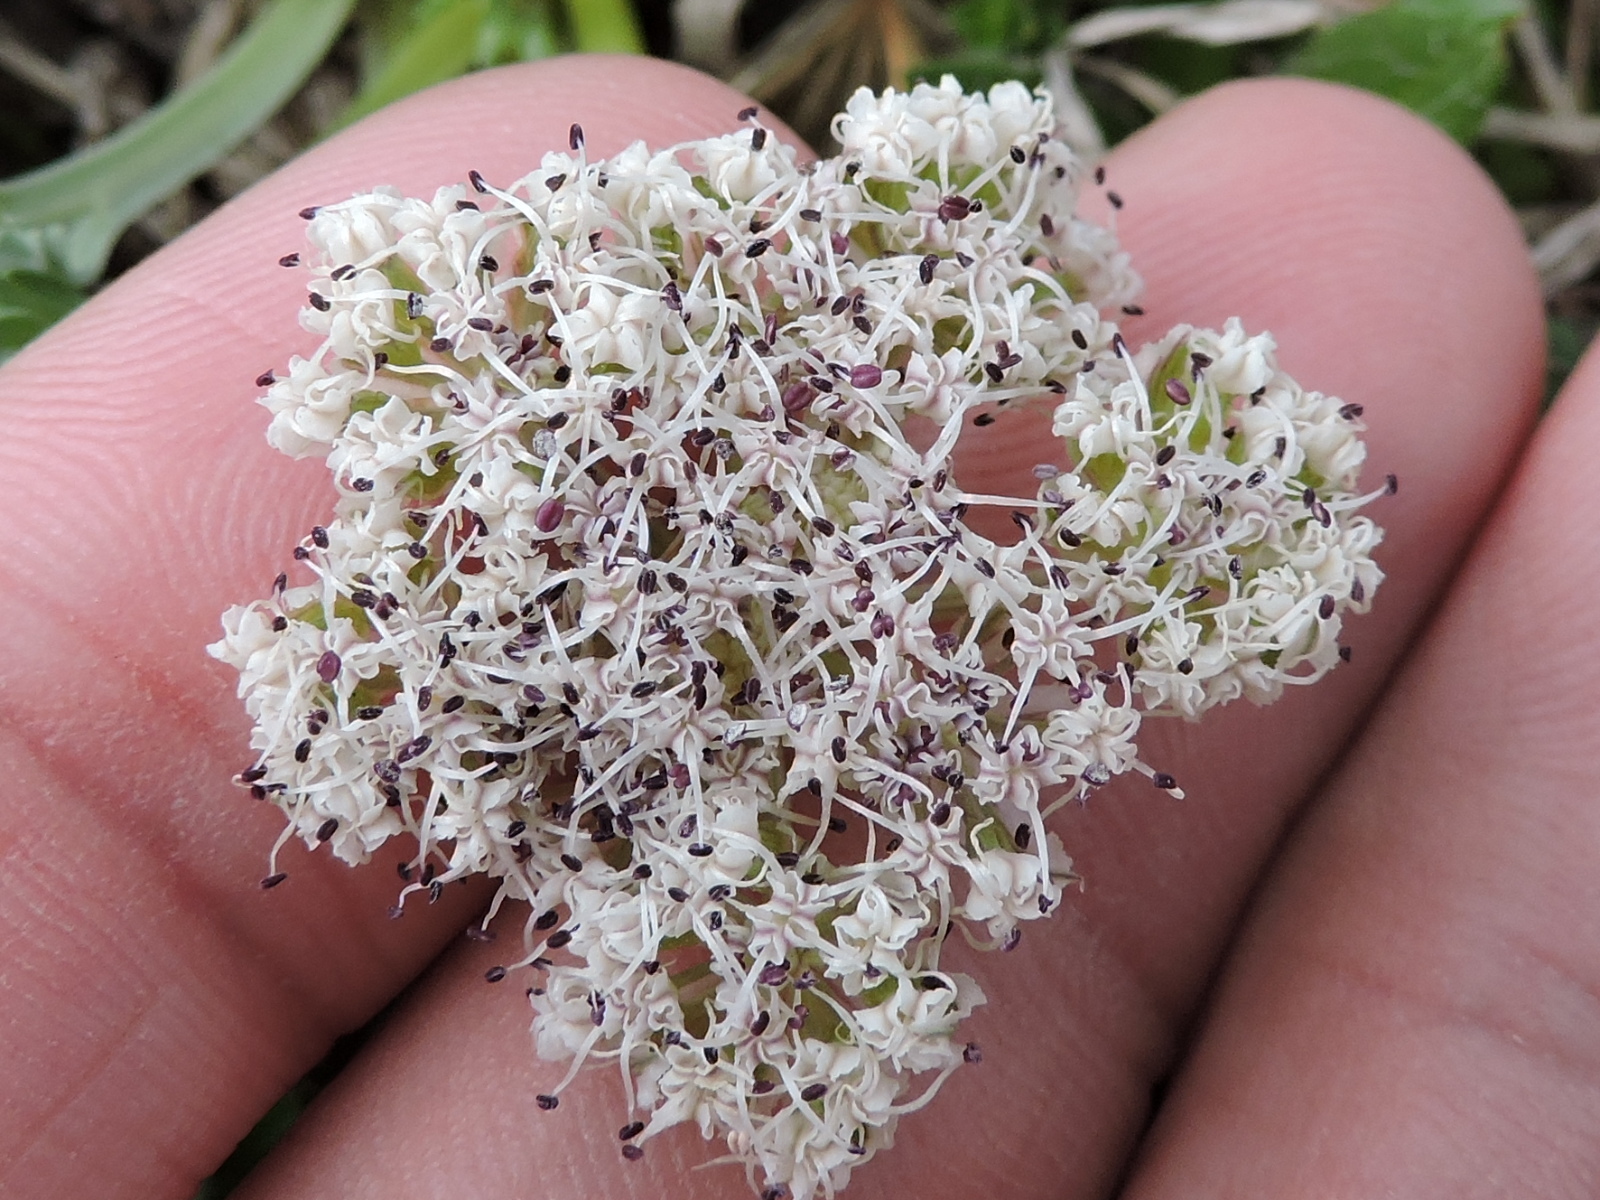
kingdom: Plantae
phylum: Tracheophyta
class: Magnoliopsida
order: Apiales
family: Apiaceae
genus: Vesper
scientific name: Vesper macrorhizus
